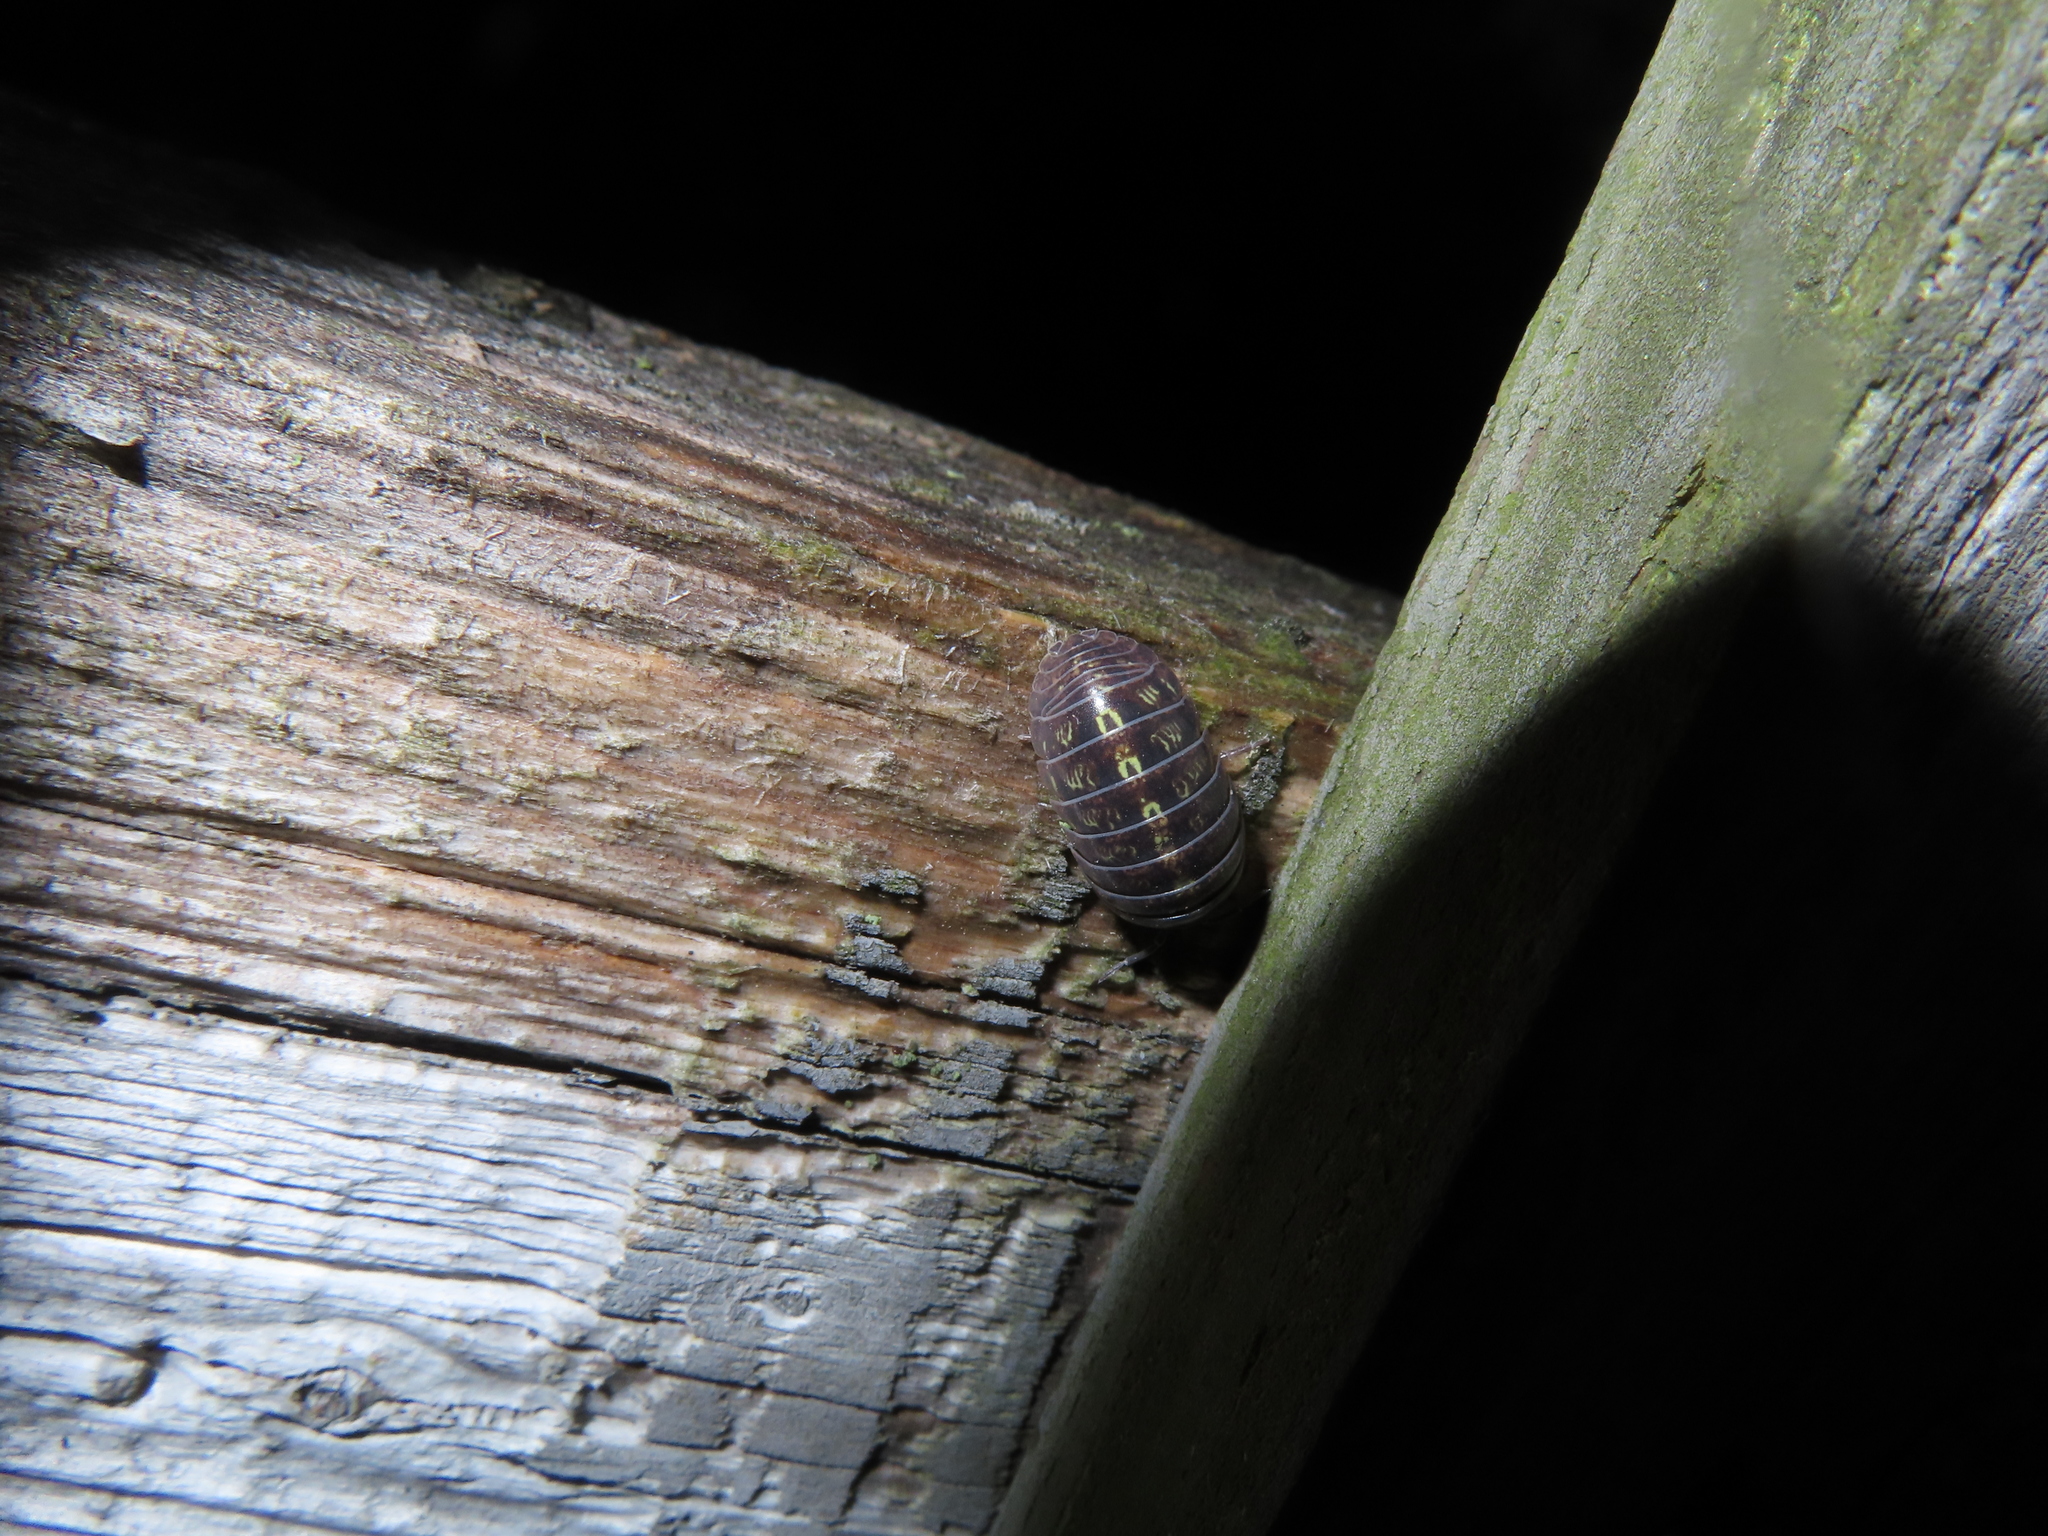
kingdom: Animalia
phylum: Arthropoda
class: Malacostraca
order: Isopoda
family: Armadillidiidae
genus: Armadillidium
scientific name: Armadillidium vulgare
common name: Common pill woodlouse
